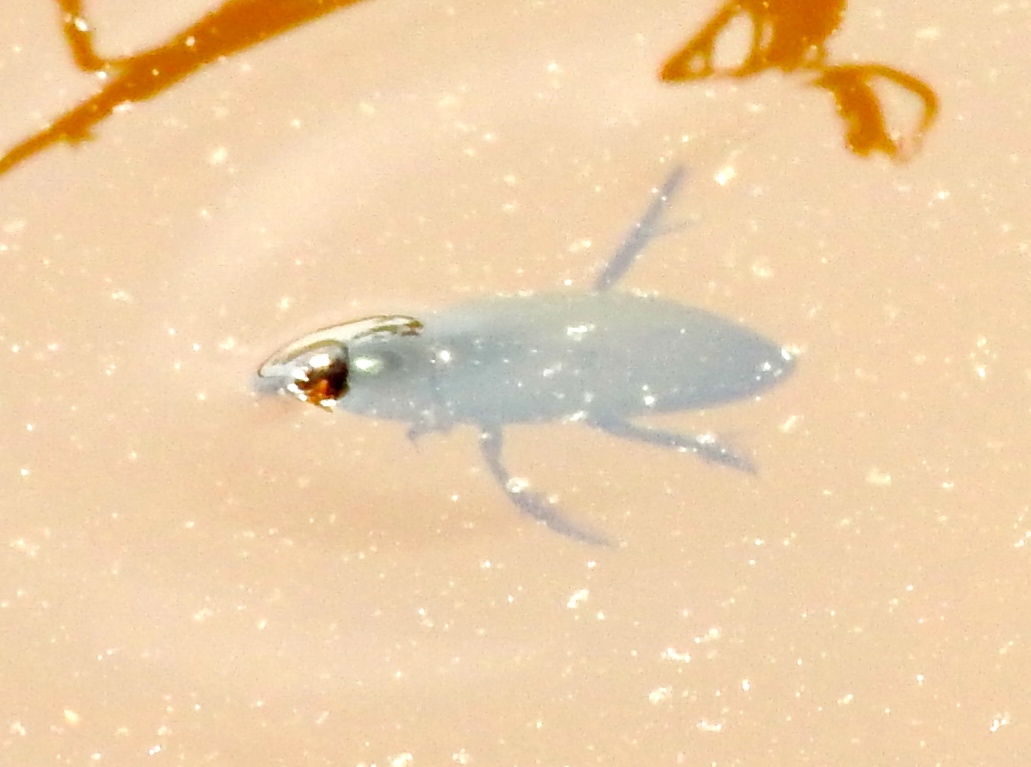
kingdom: Animalia
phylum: Arthropoda
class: Insecta
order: Coleoptera
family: Hydrophilidae
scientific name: Hydrophilidae
